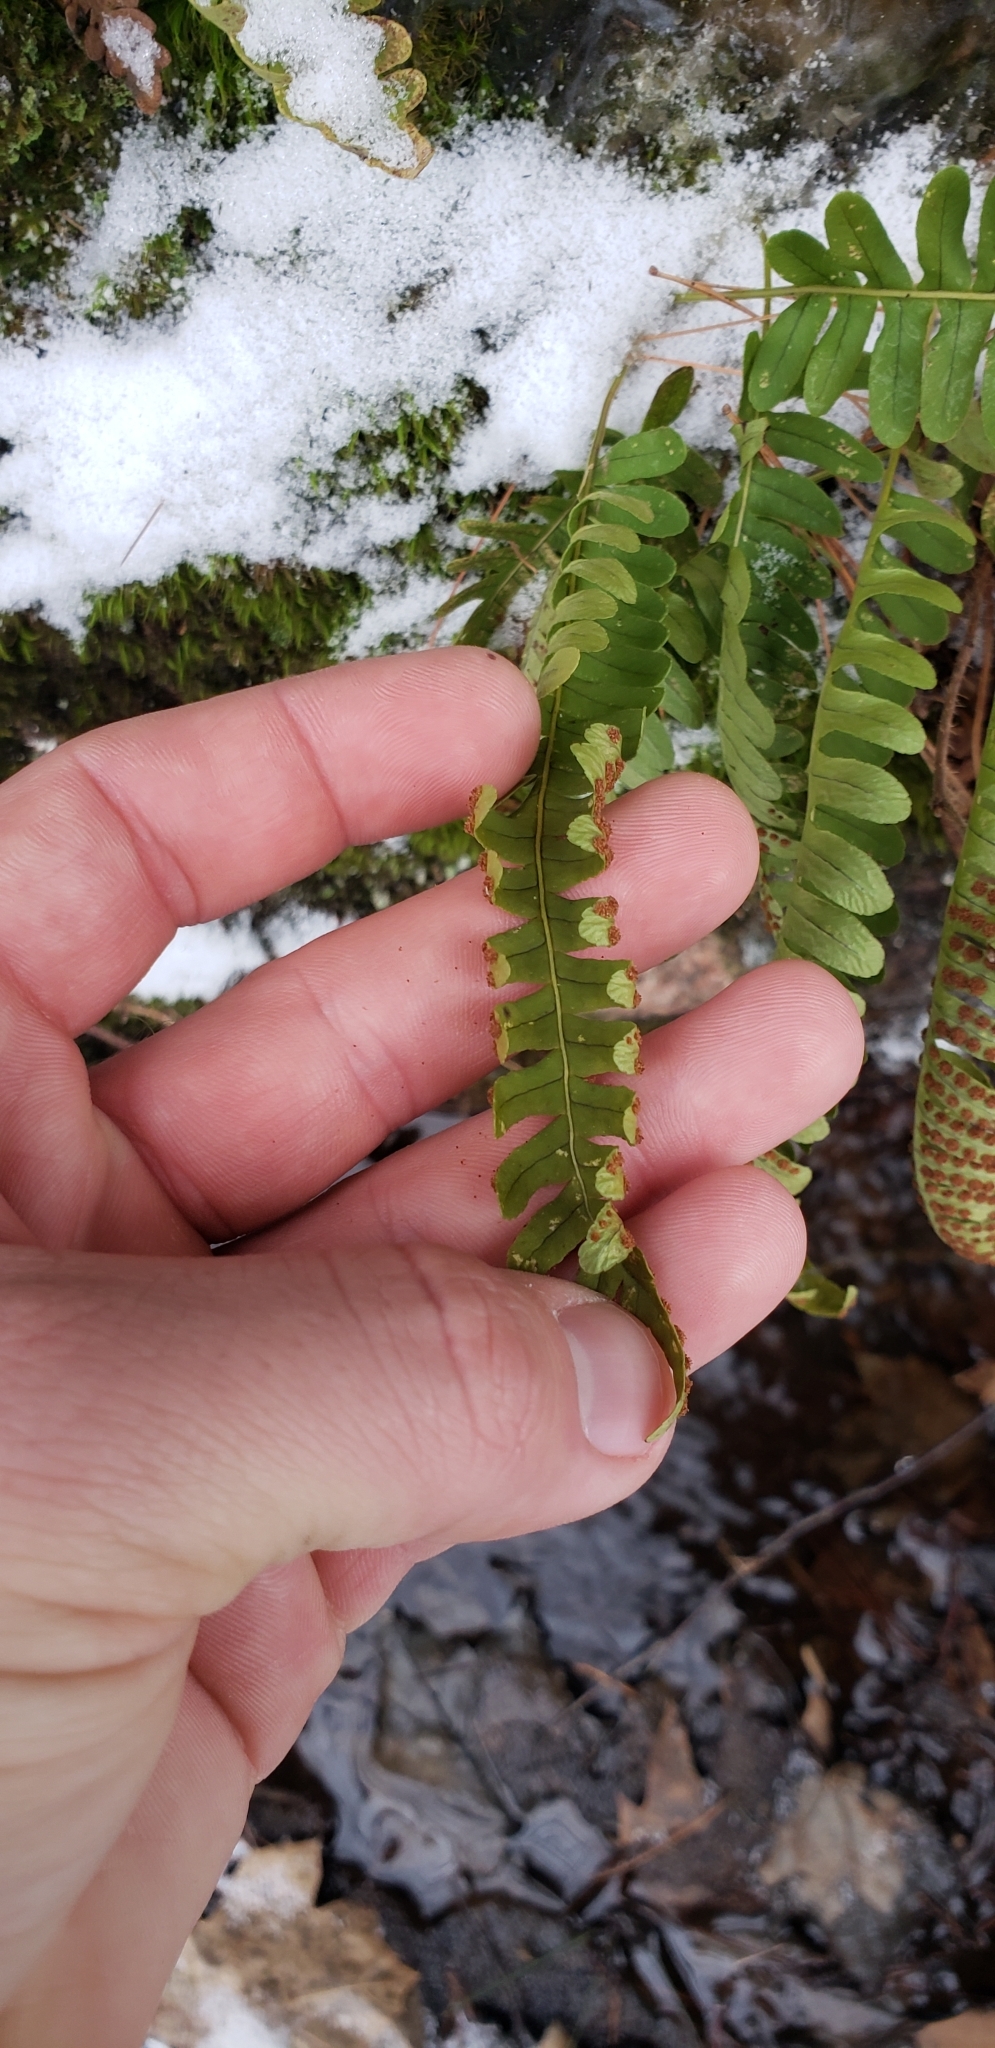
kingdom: Plantae
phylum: Tracheophyta
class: Polypodiopsida
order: Polypodiales
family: Polypodiaceae
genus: Polypodium
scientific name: Polypodium virginianum
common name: American wall fern
